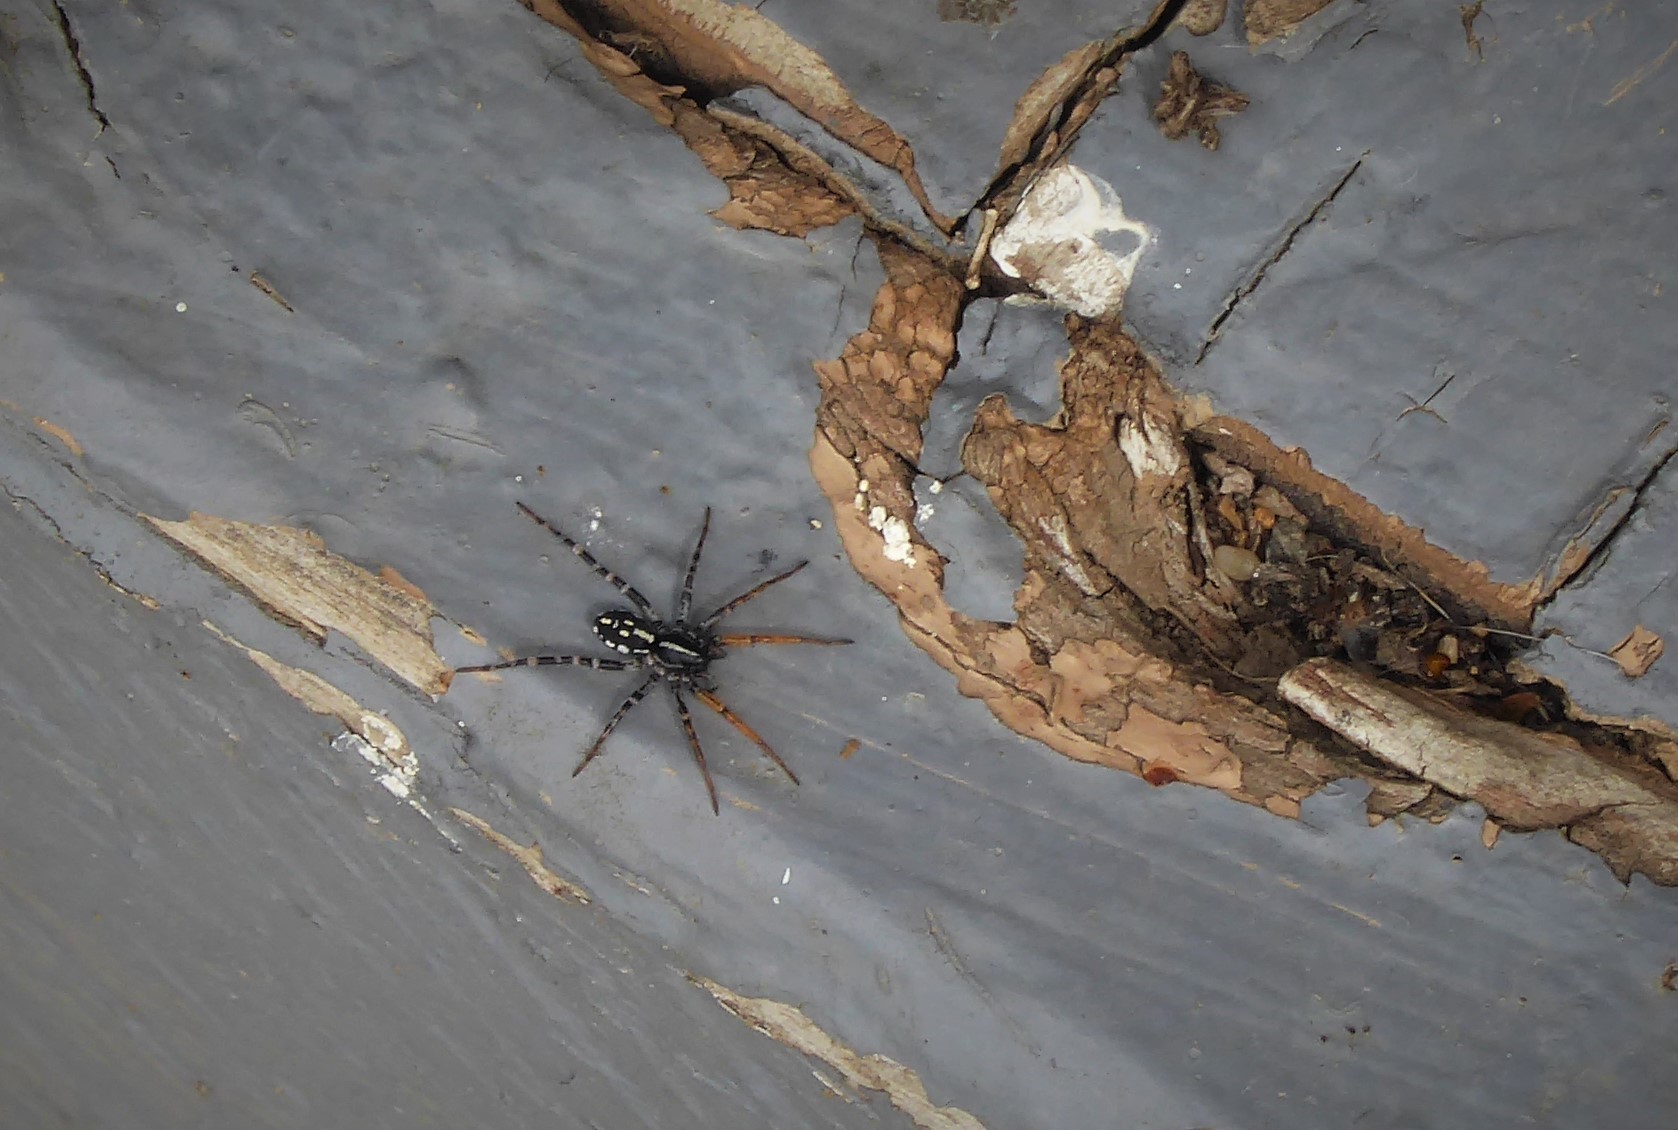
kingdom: Animalia
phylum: Arthropoda
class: Arachnida
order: Araneae
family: Corinnidae
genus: Nyssus
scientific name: Nyssus coloripes
